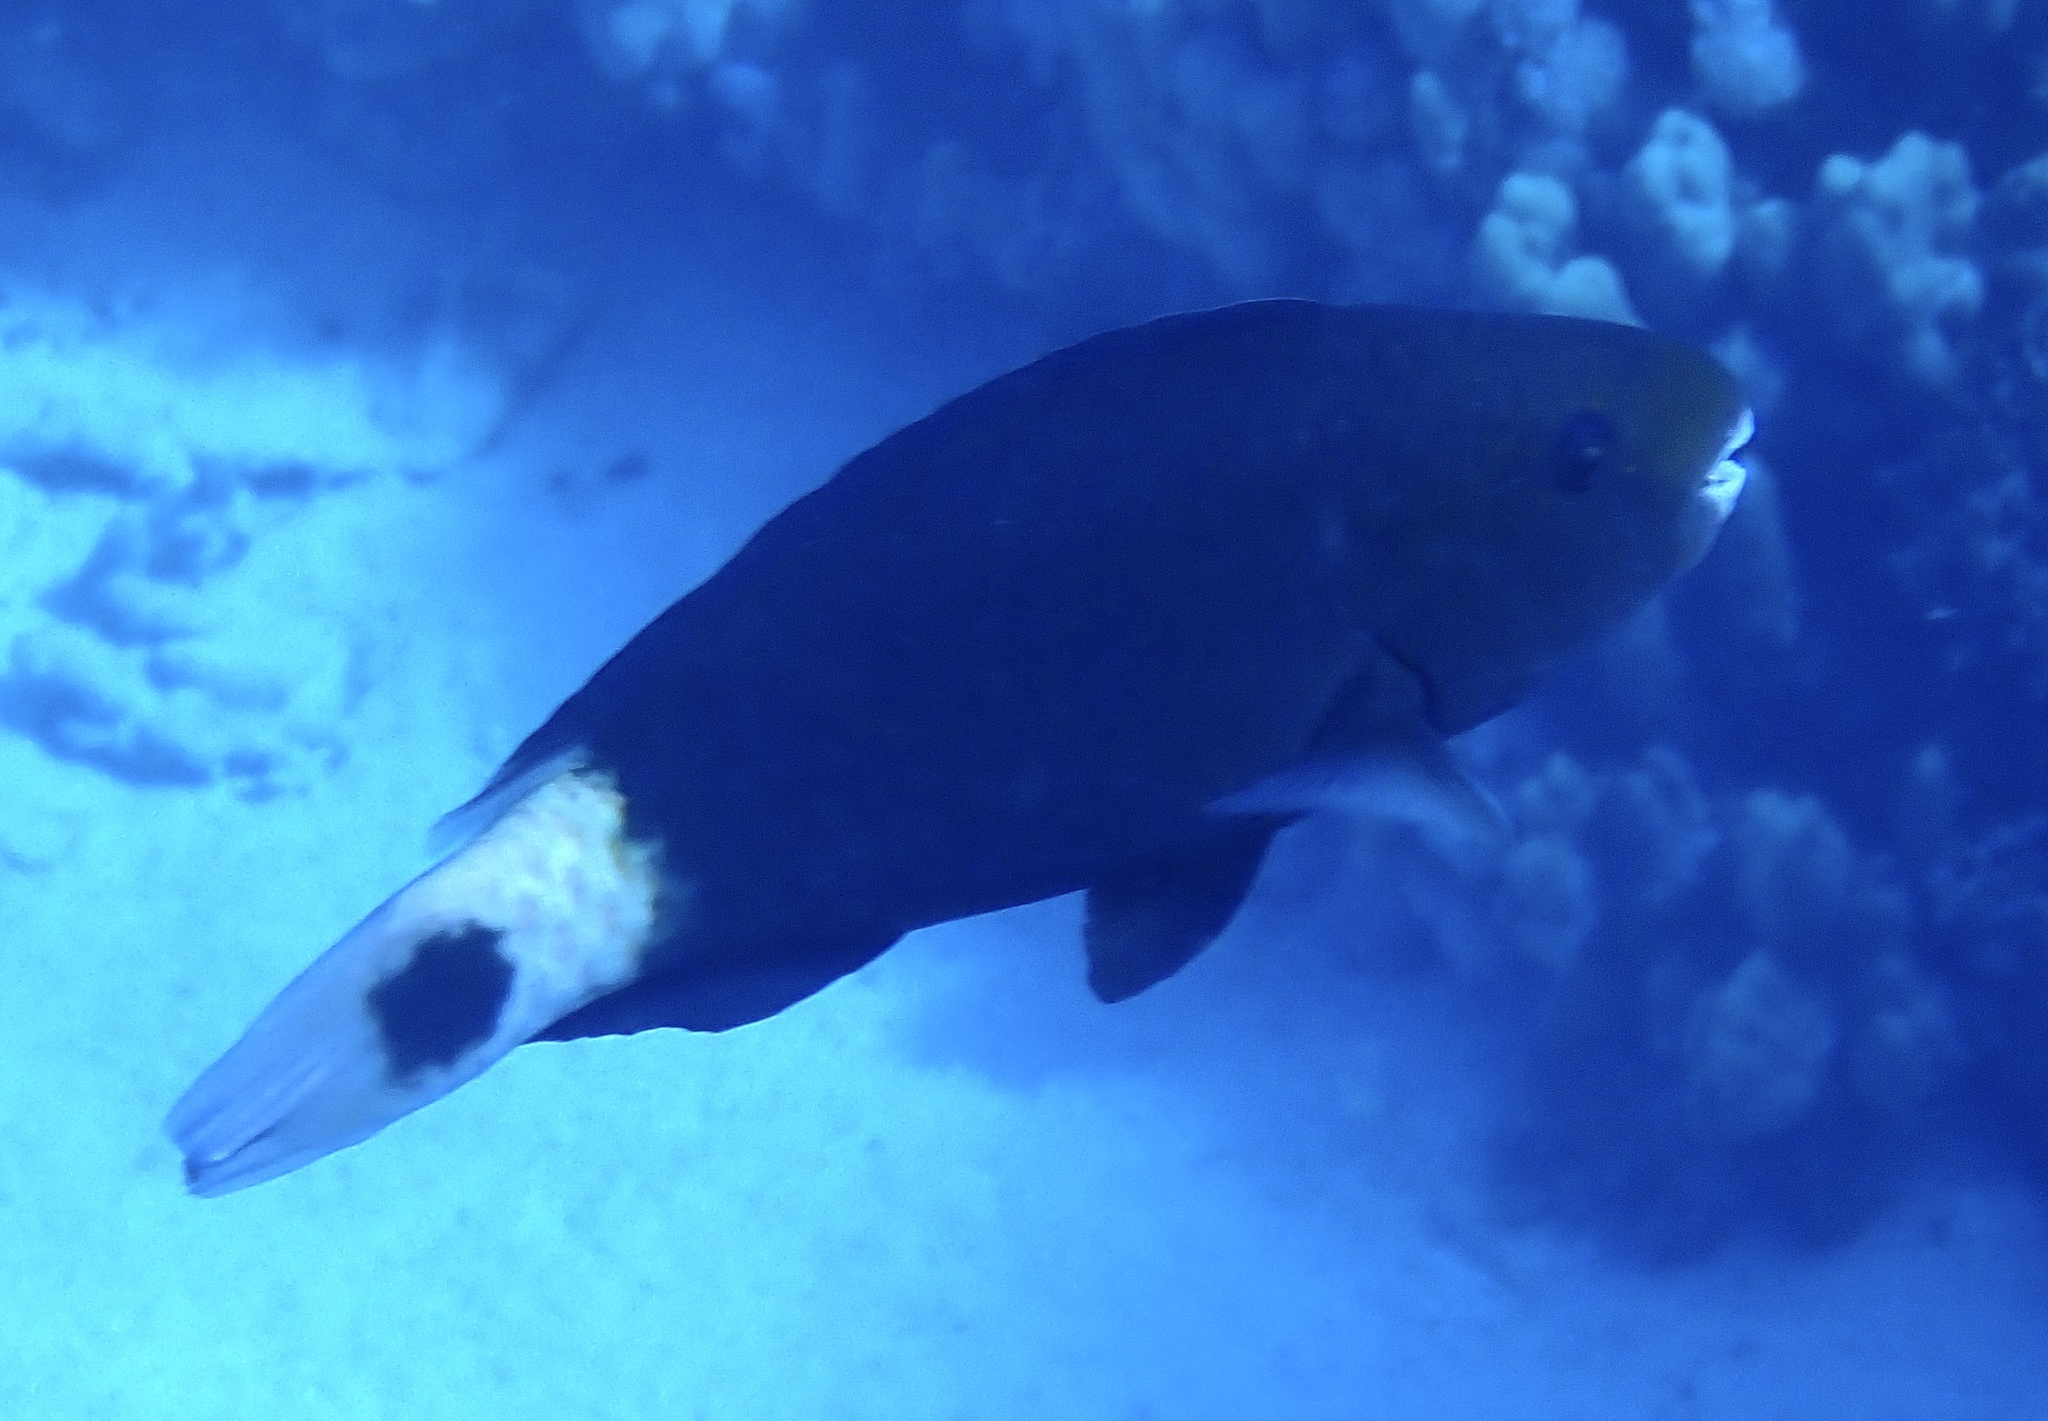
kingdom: Animalia
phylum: Chordata
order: Perciformes
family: Scaridae
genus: Chlorurus
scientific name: Chlorurus sordidus
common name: Bullethead parrotfish
